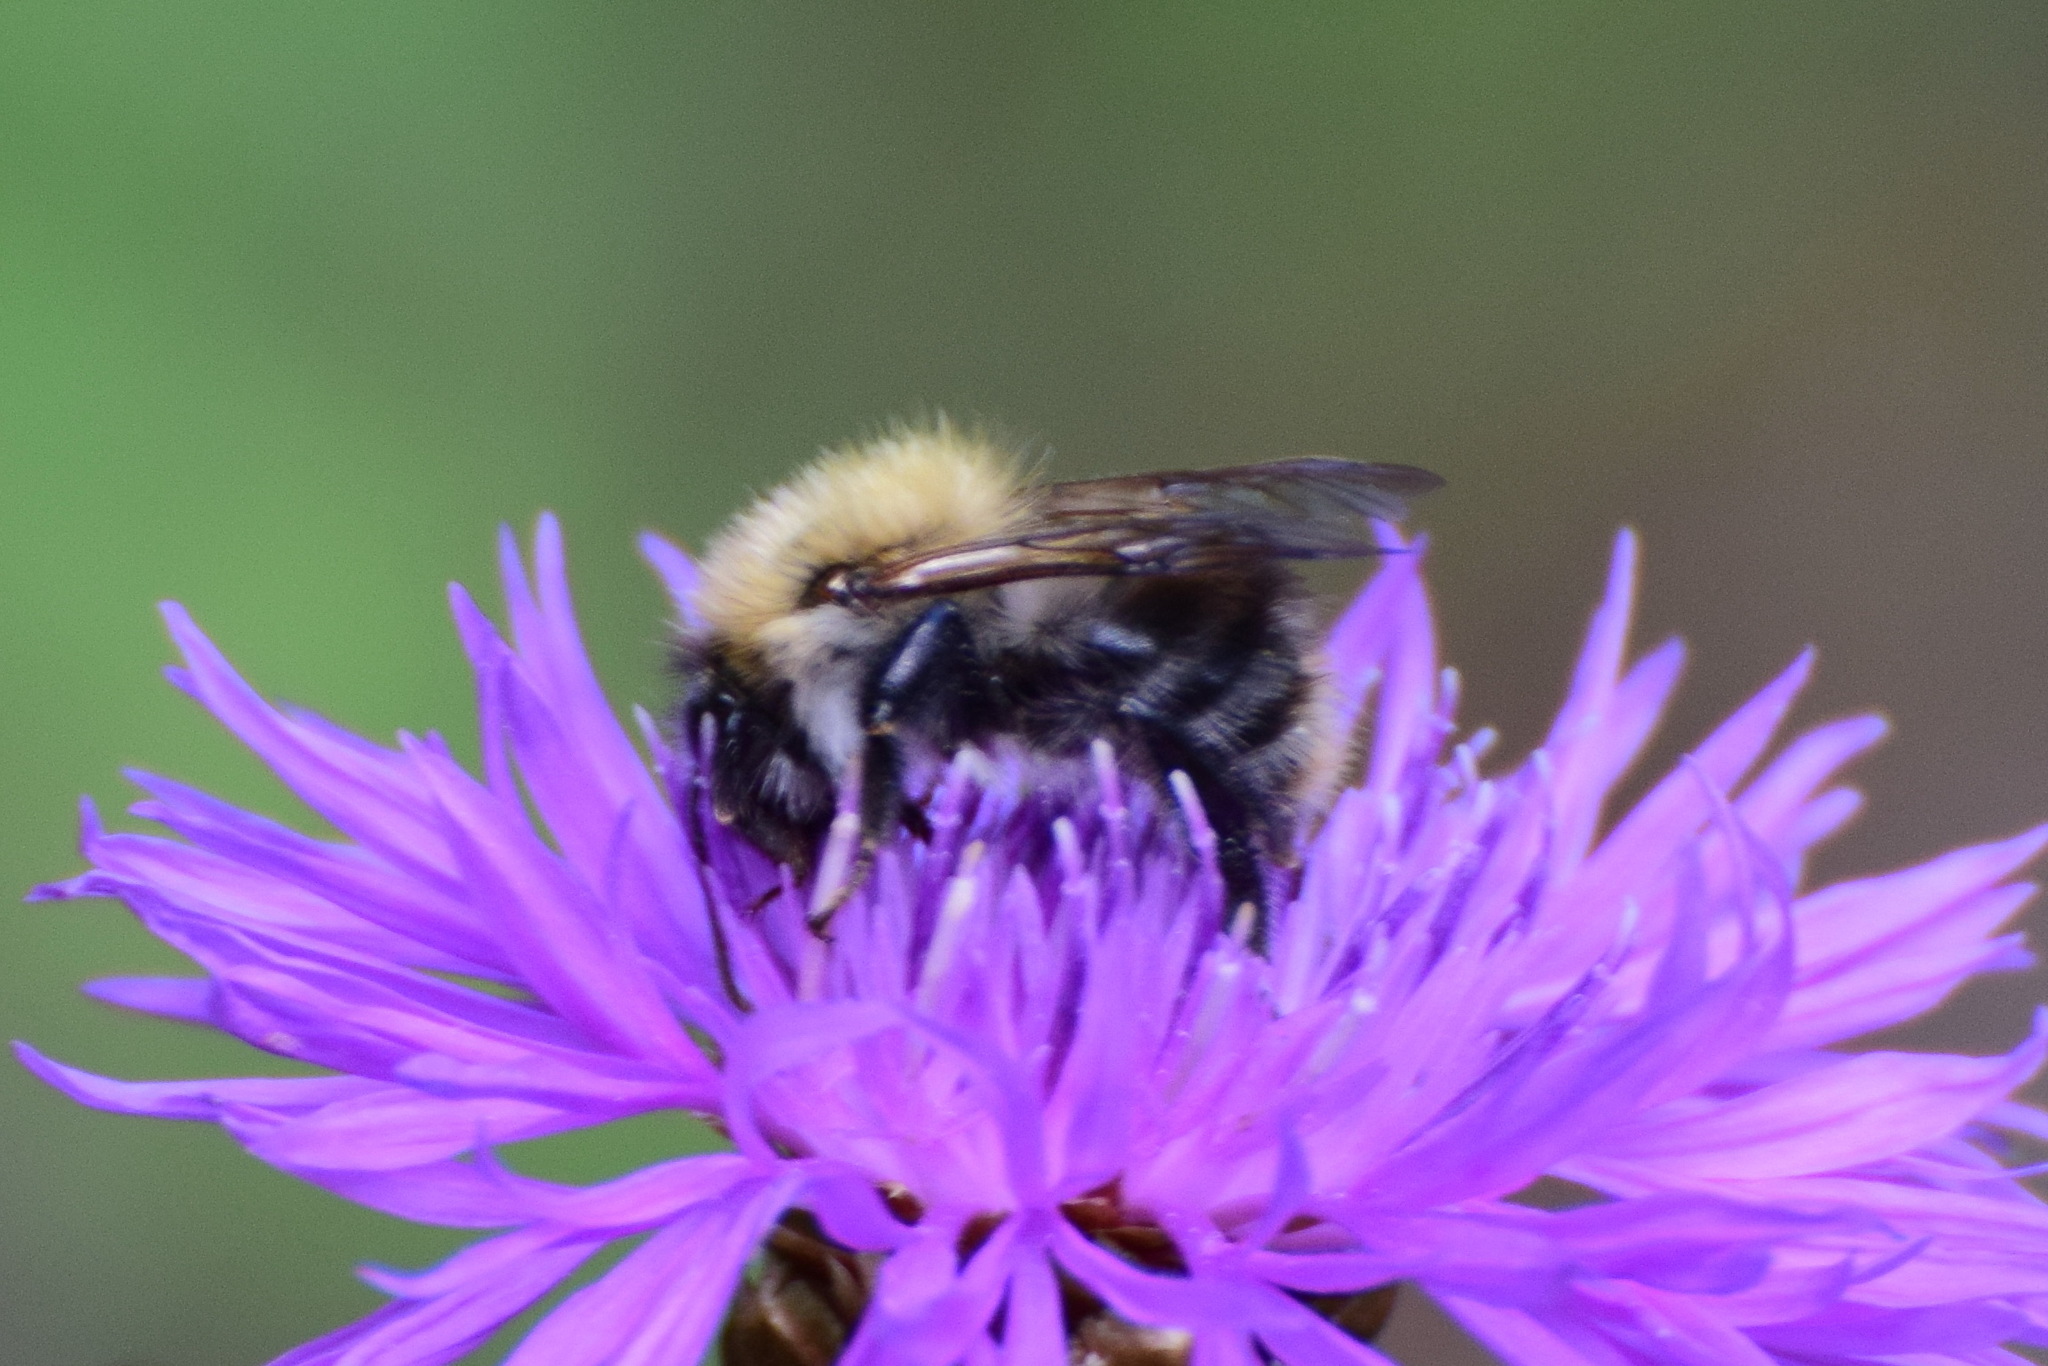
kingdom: Animalia
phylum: Arthropoda
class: Insecta
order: Hymenoptera
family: Apidae
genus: Bombus
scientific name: Bombus pascuorum
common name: Common carder bee
